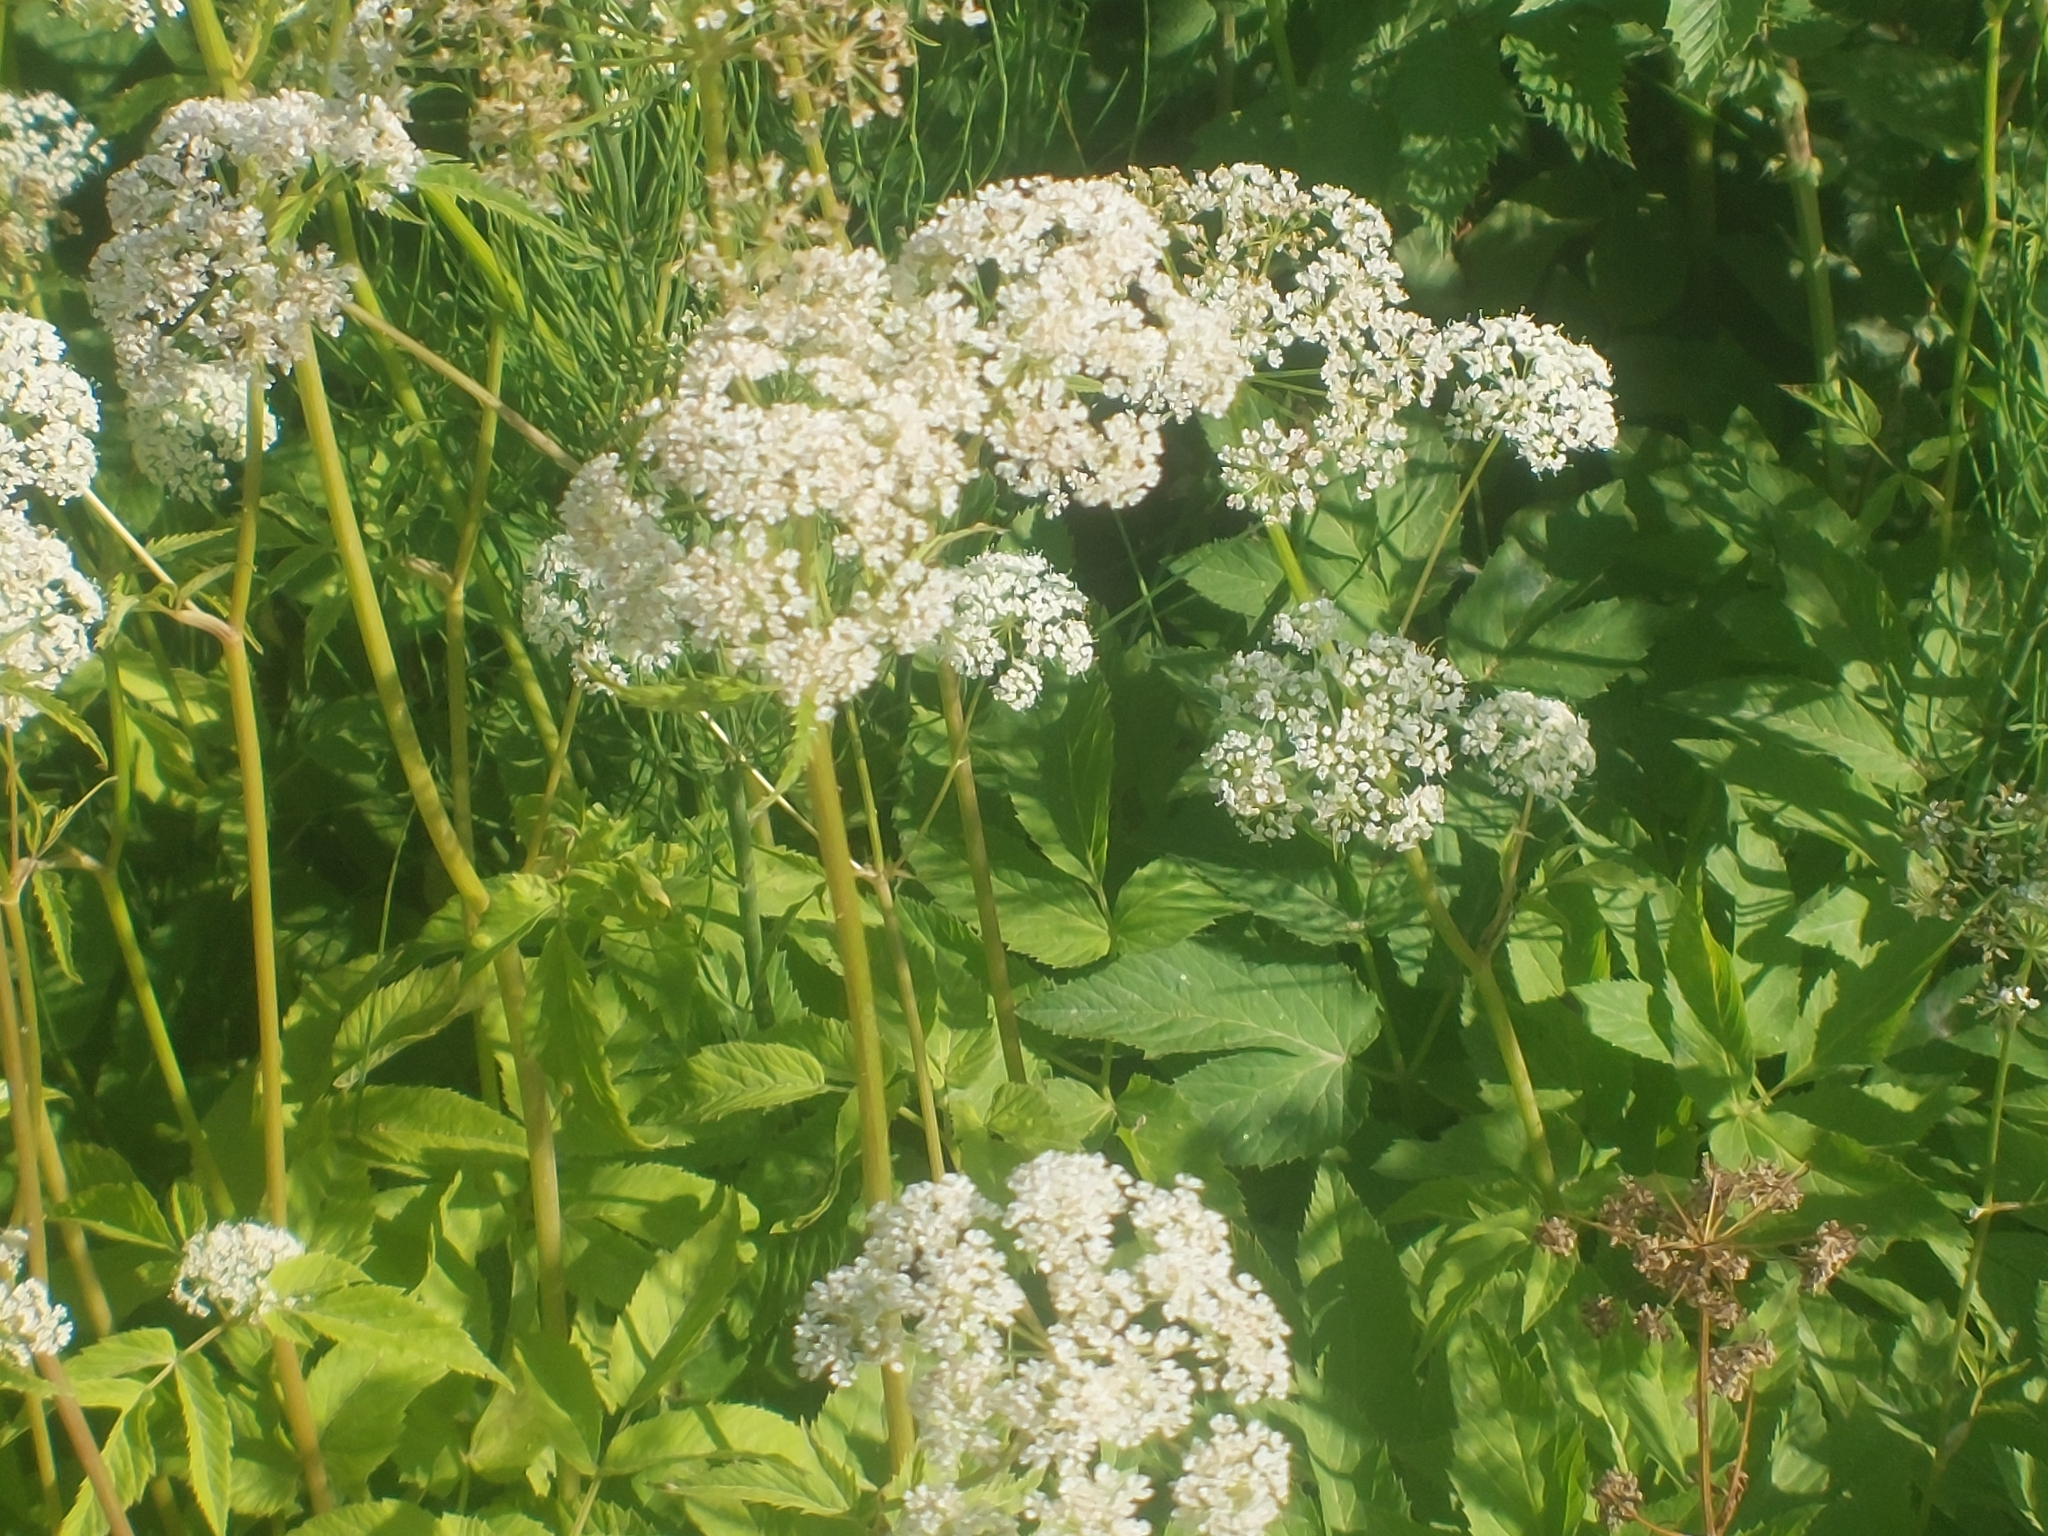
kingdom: Plantae
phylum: Tracheophyta
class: Magnoliopsida
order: Apiales
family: Apiaceae
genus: Aegopodium
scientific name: Aegopodium podagraria
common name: Ground-elder
